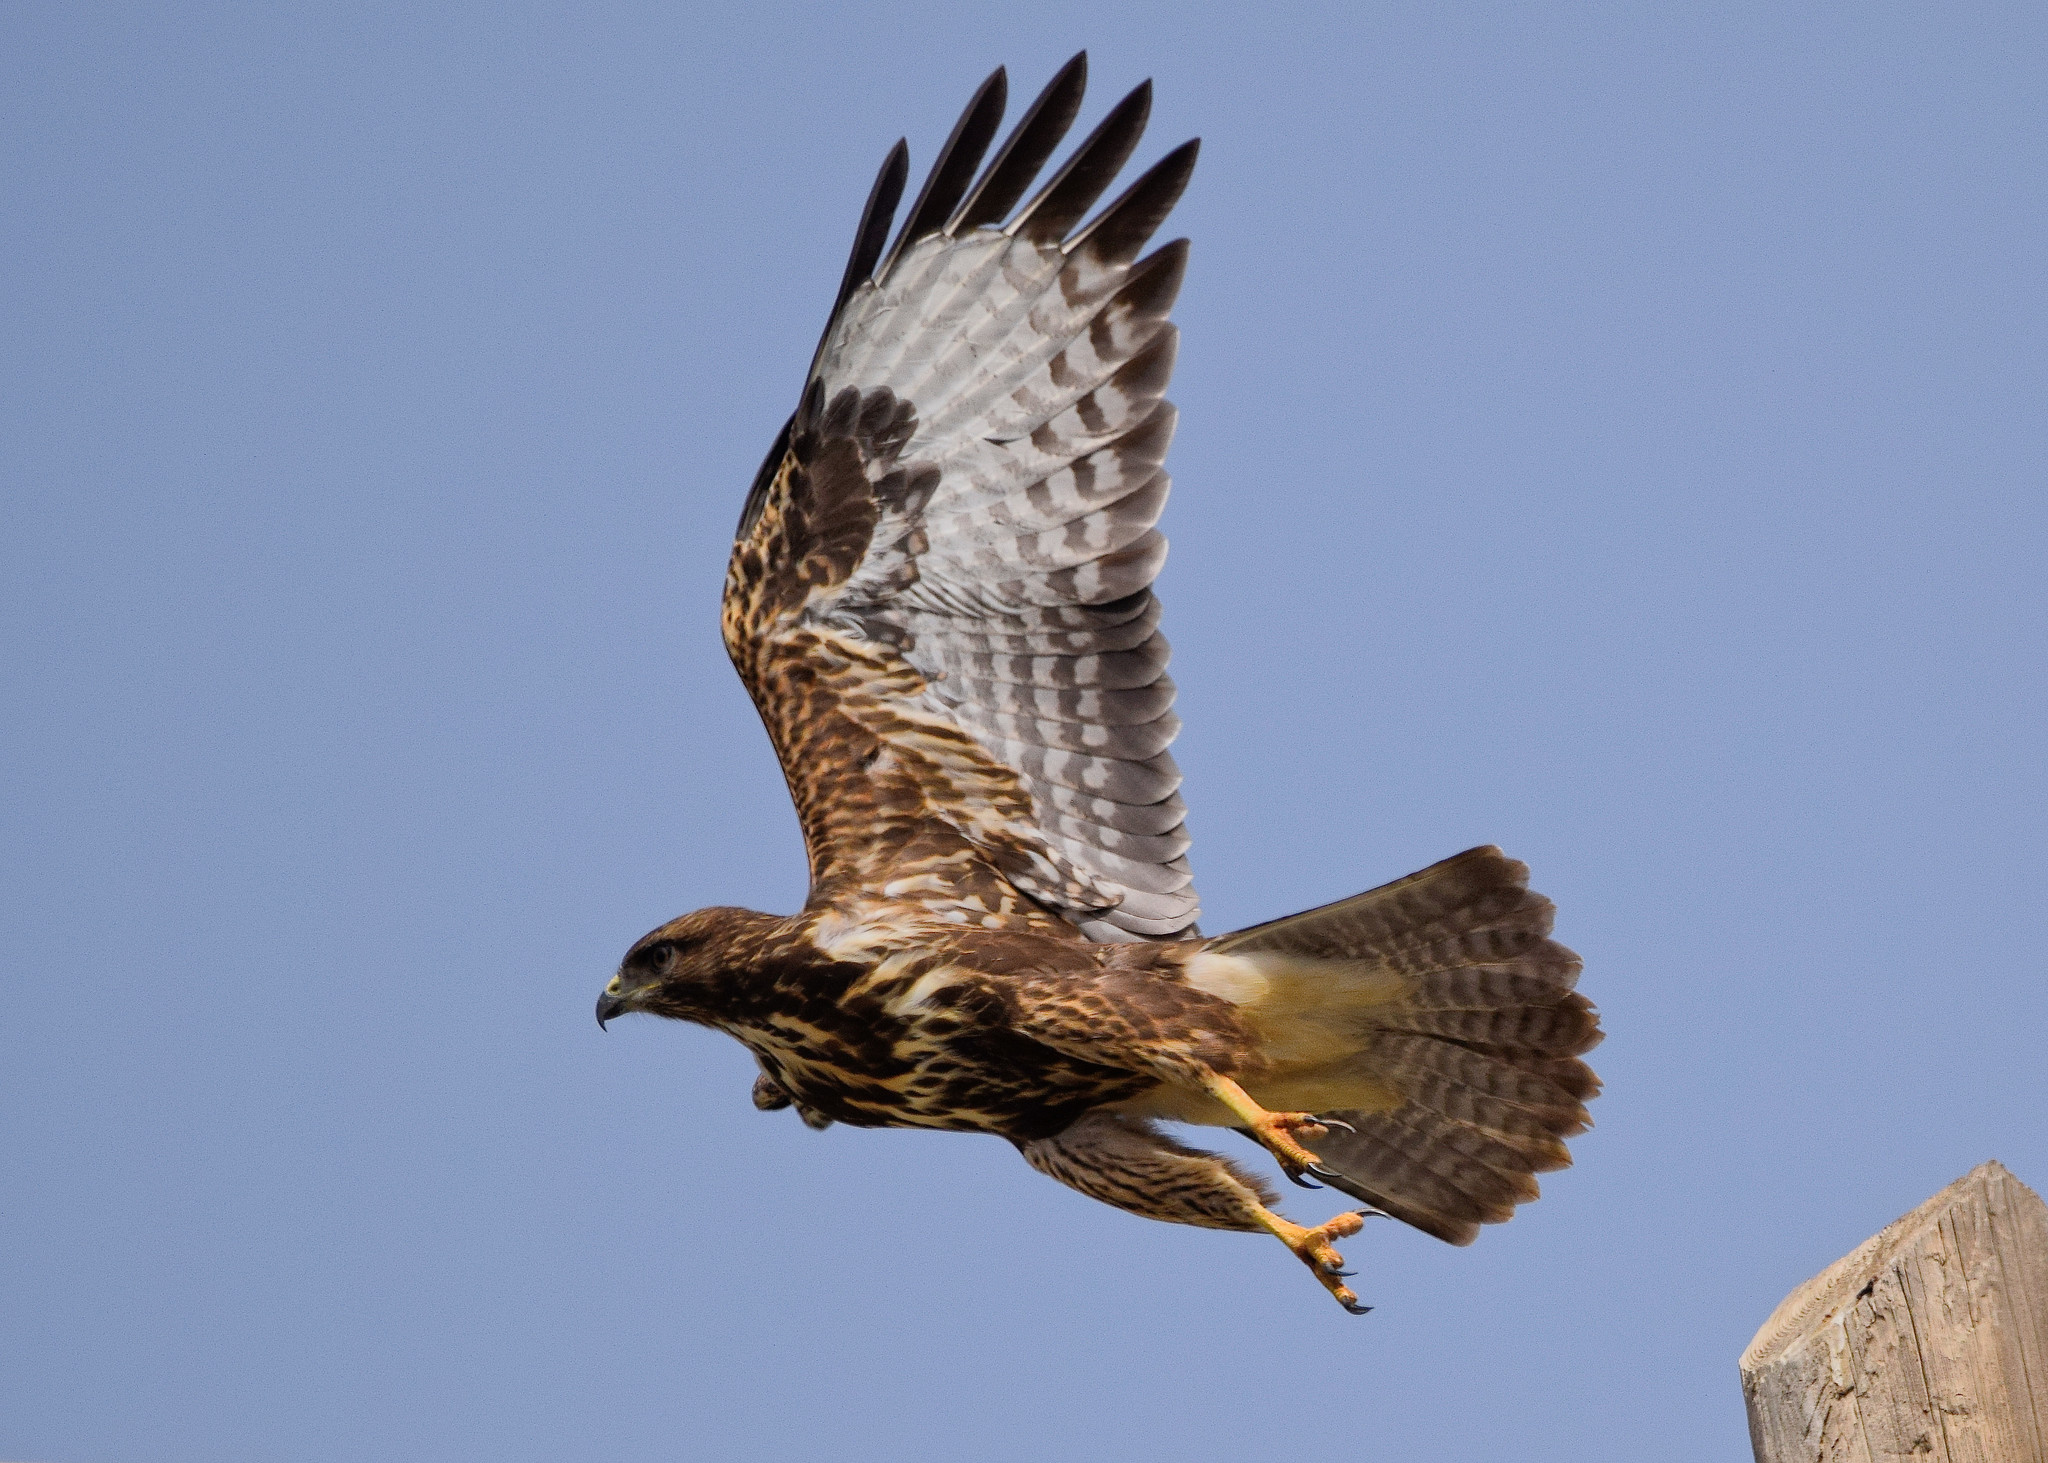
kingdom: Animalia
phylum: Chordata
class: Aves
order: Accipitriformes
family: Accipitridae
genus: Buteo
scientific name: Buteo buteo
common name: Common buzzard
